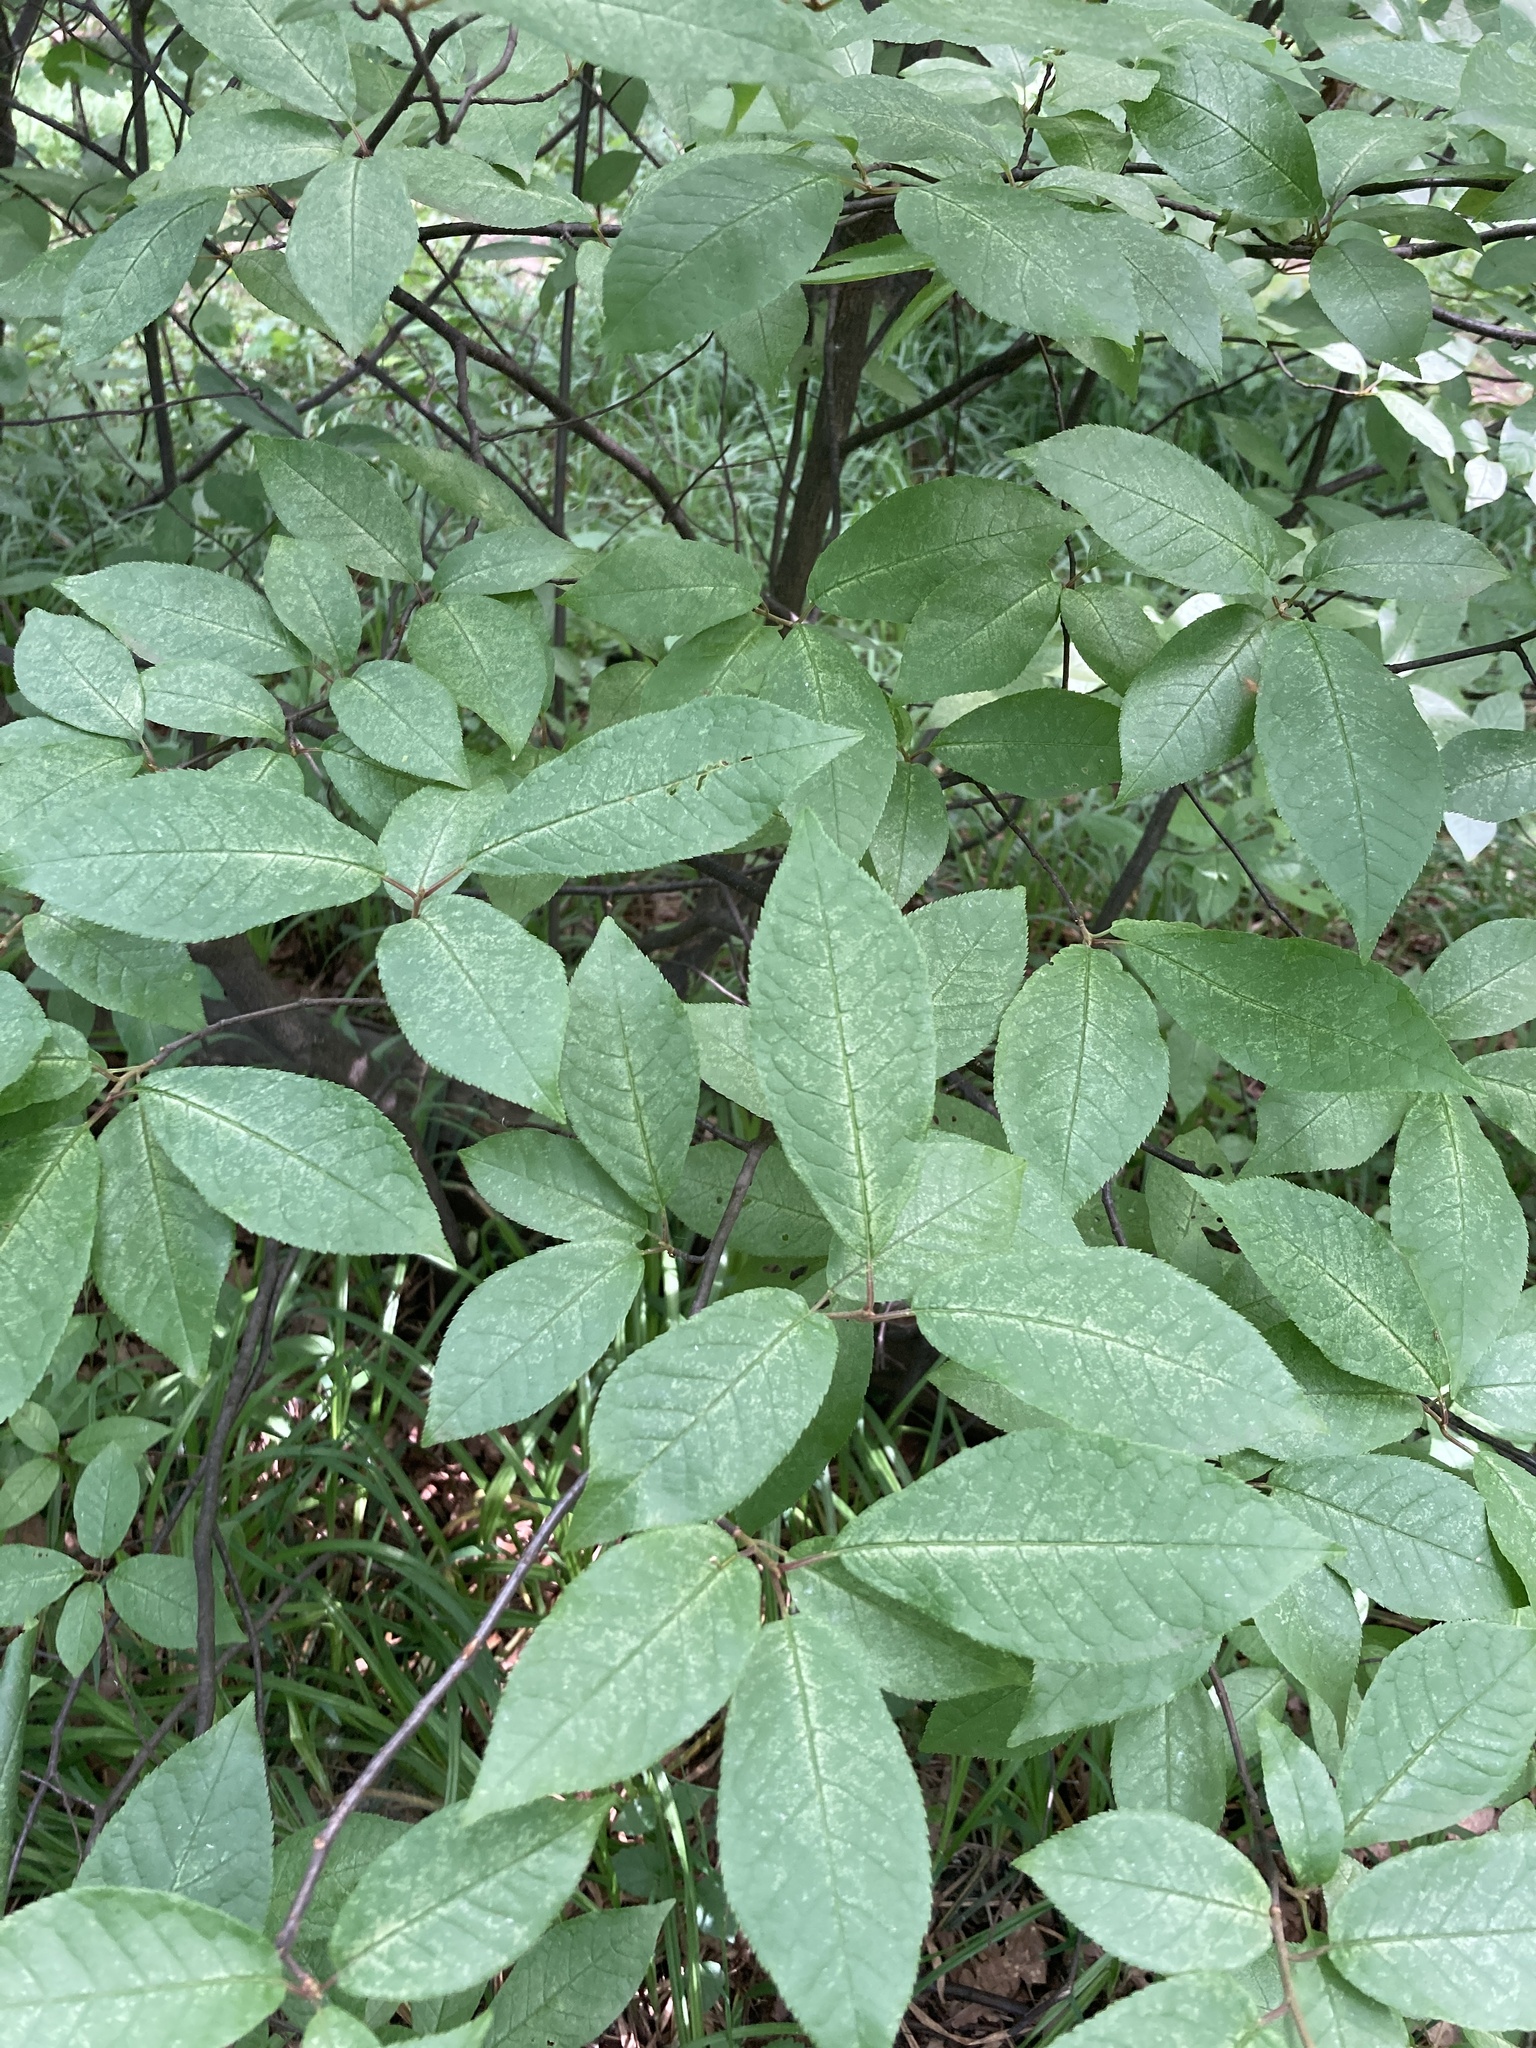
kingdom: Plantae
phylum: Tracheophyta
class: Magnoliopsida
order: Rosales
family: Rosaceae
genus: Prunus
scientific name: Prunus padus
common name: Bird cherry
